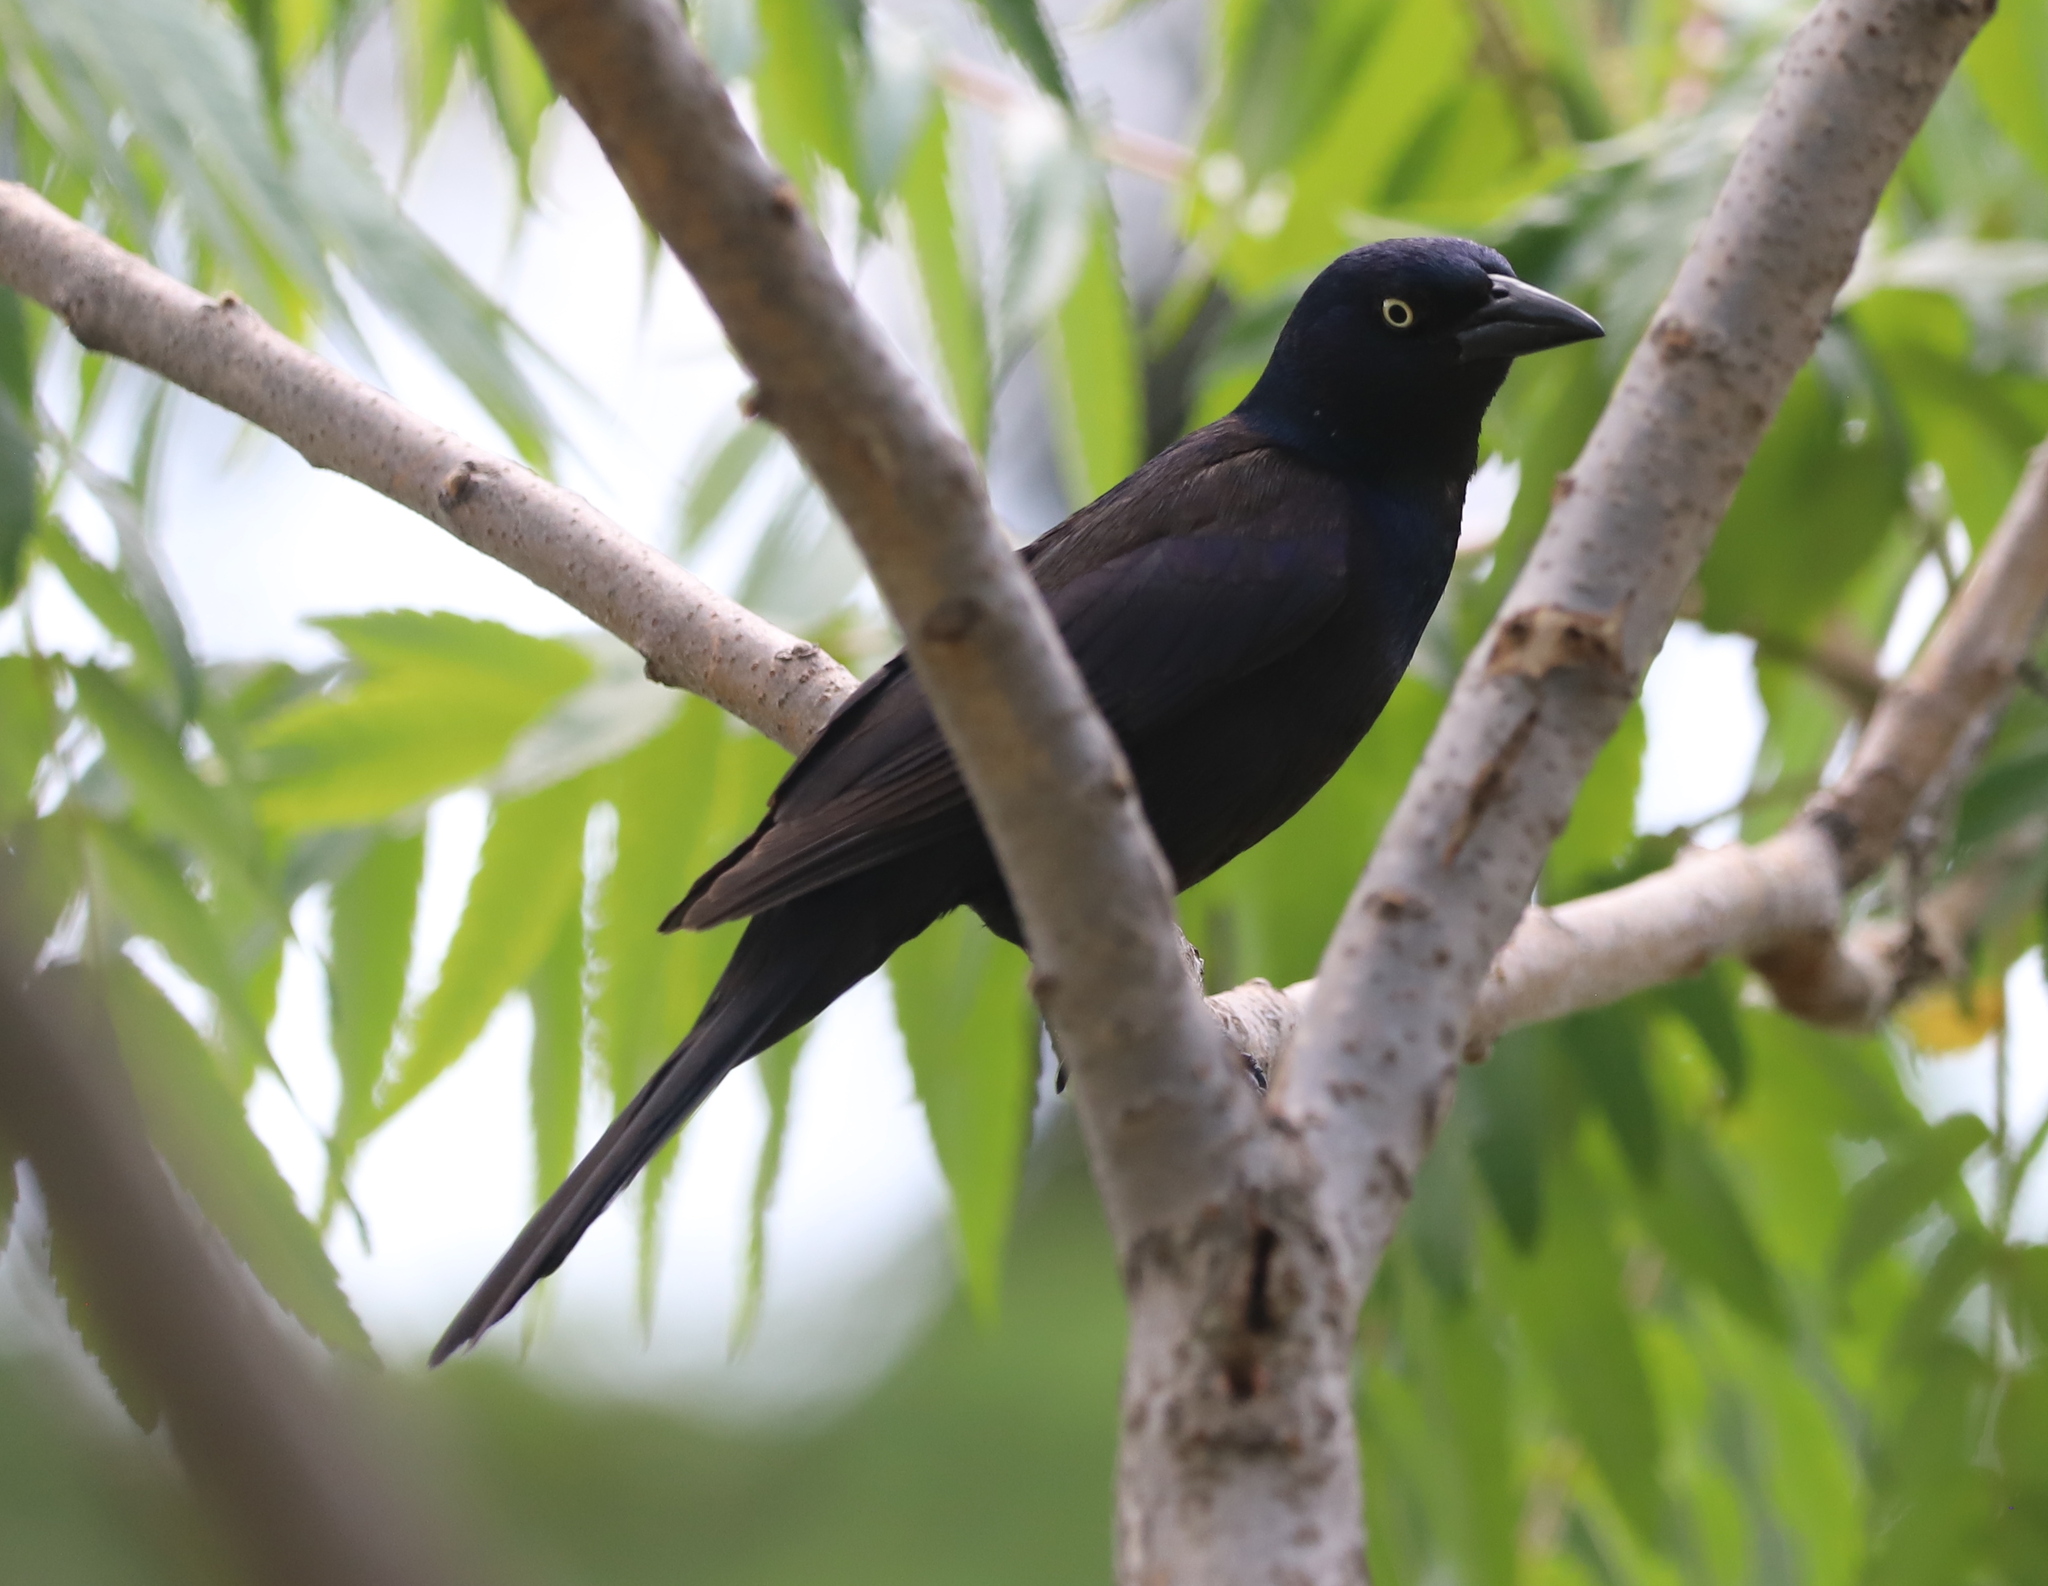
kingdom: Animalia
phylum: Chordata
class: Aves
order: Passeriformes
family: Icteridae
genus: Quiscalus
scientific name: Quiscalus quiscula
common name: Common grackle
